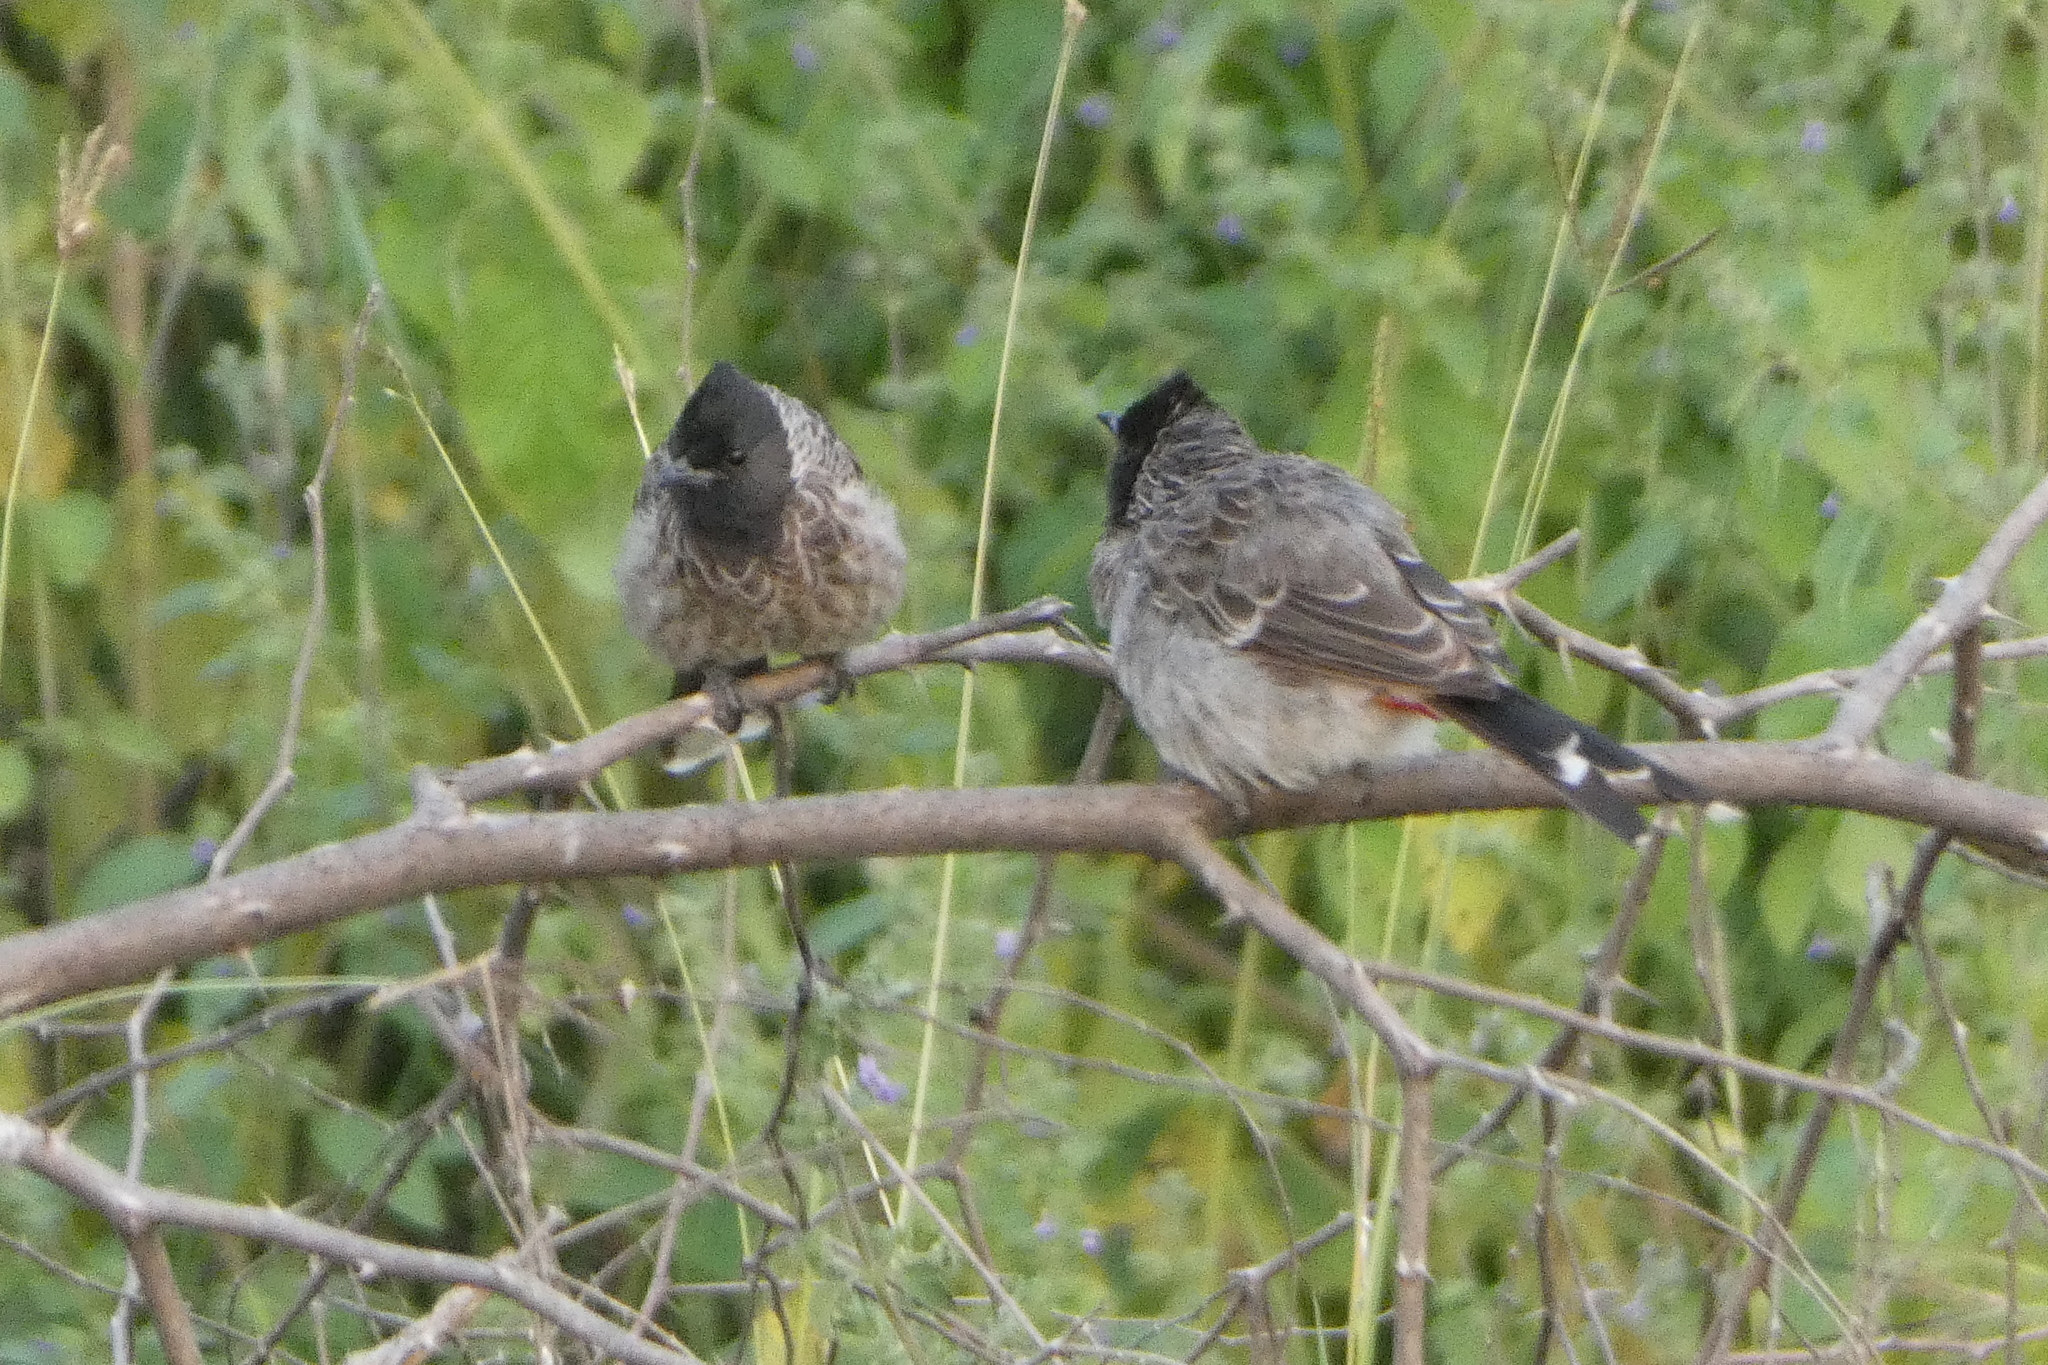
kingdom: Animalia
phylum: Chordata
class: Aves
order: Passeriformes
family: Pycnonotidae
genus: Pycnonotus
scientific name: Pycnonotus cafer
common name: Red-vented bulbul
